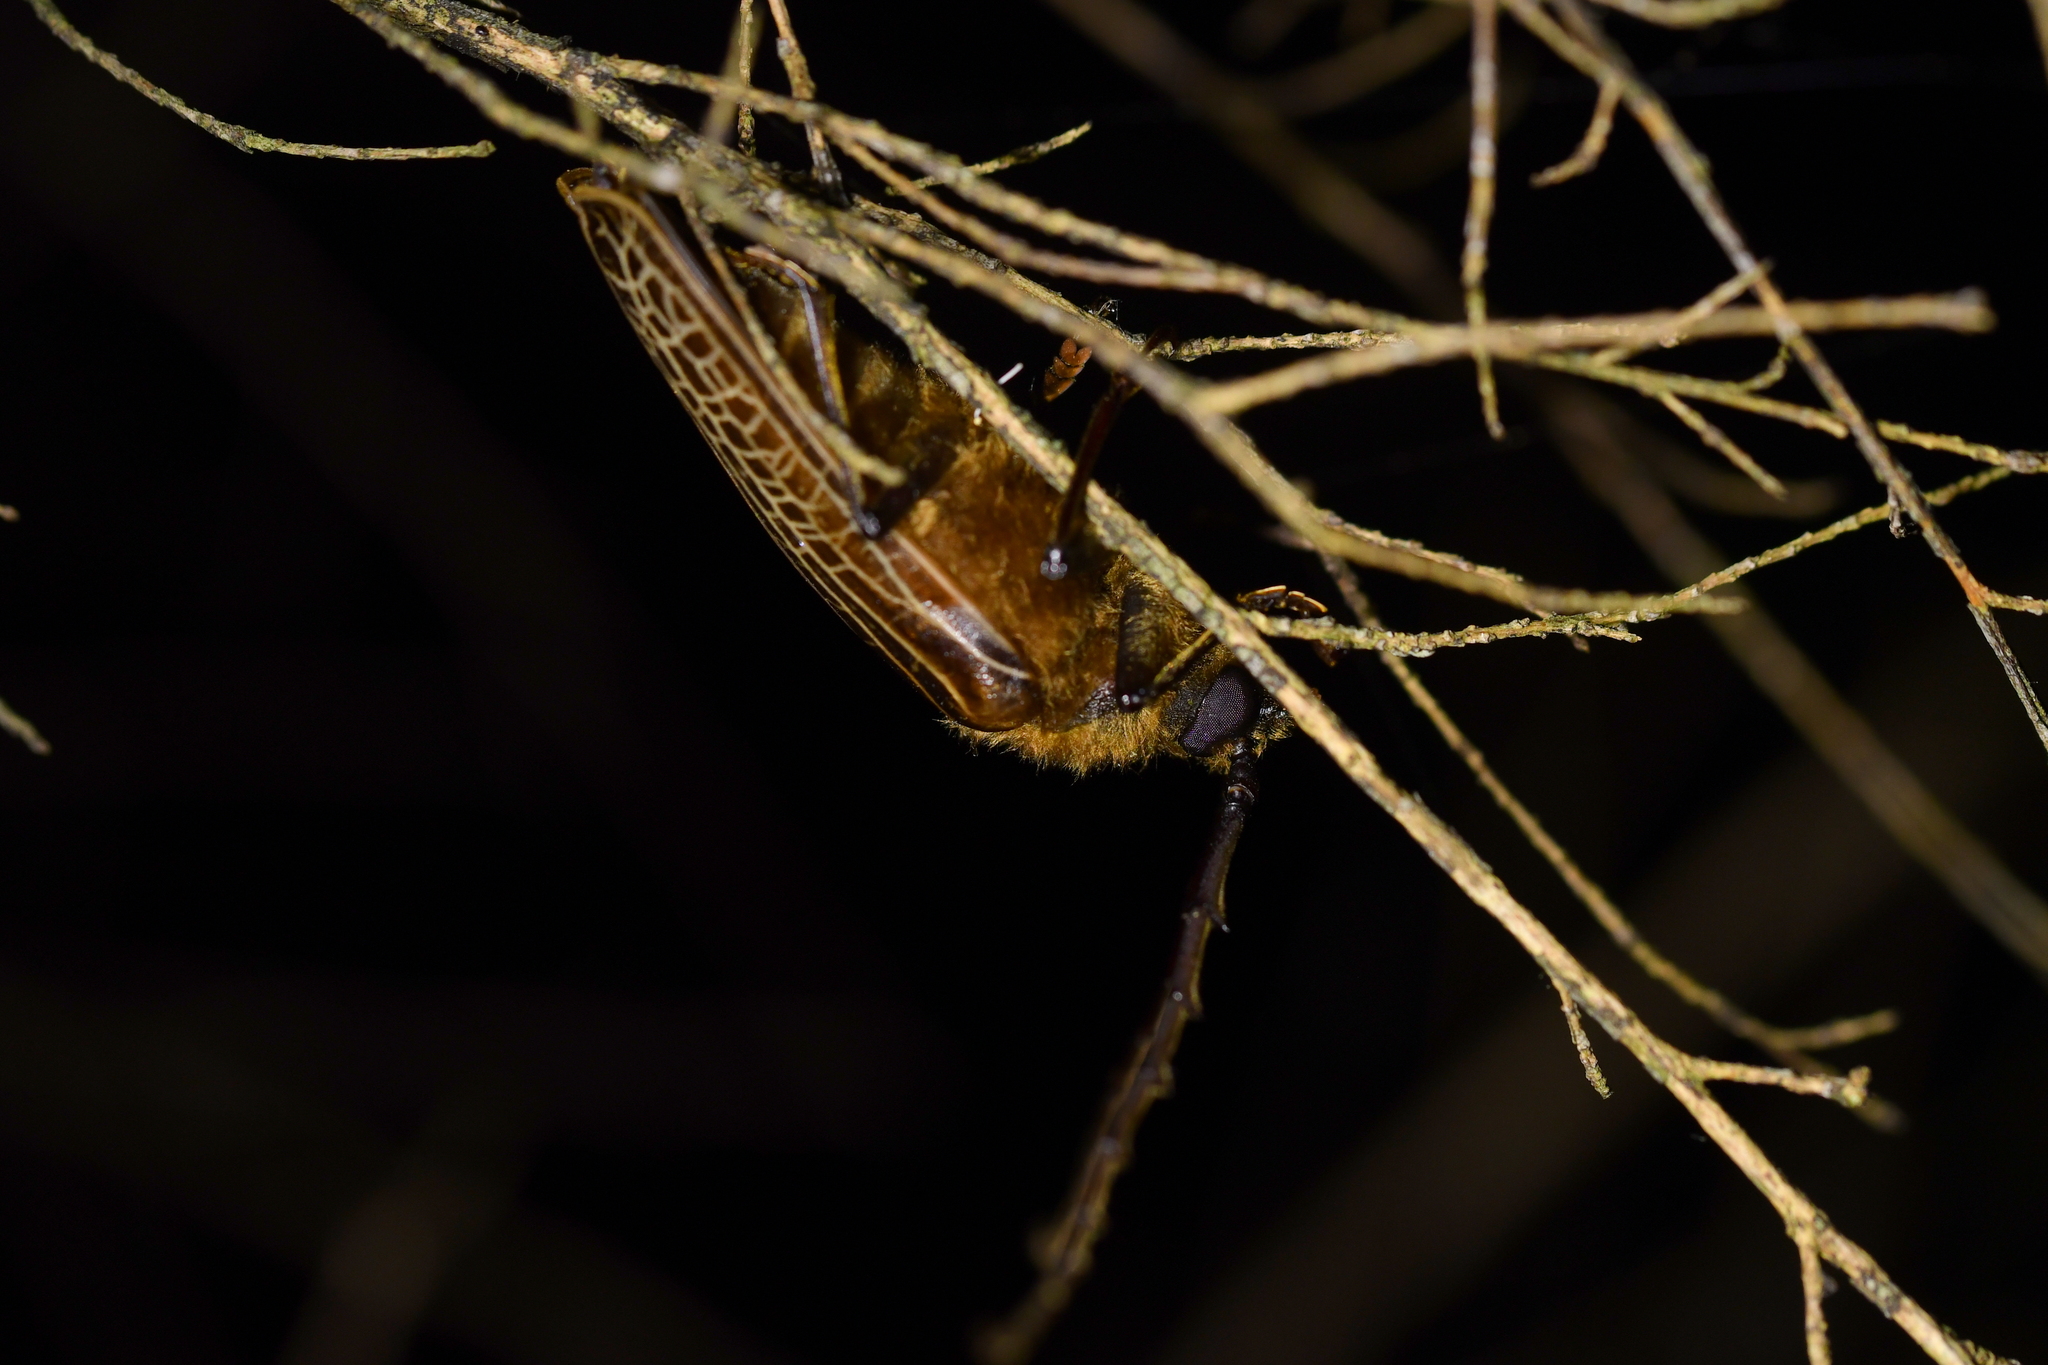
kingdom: Animalia
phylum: Arthropoda
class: Insecta
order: Coleoptera
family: Cerambycidae
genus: Prionoplus
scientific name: Prionoplus reticularis
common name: Huhu beetle
